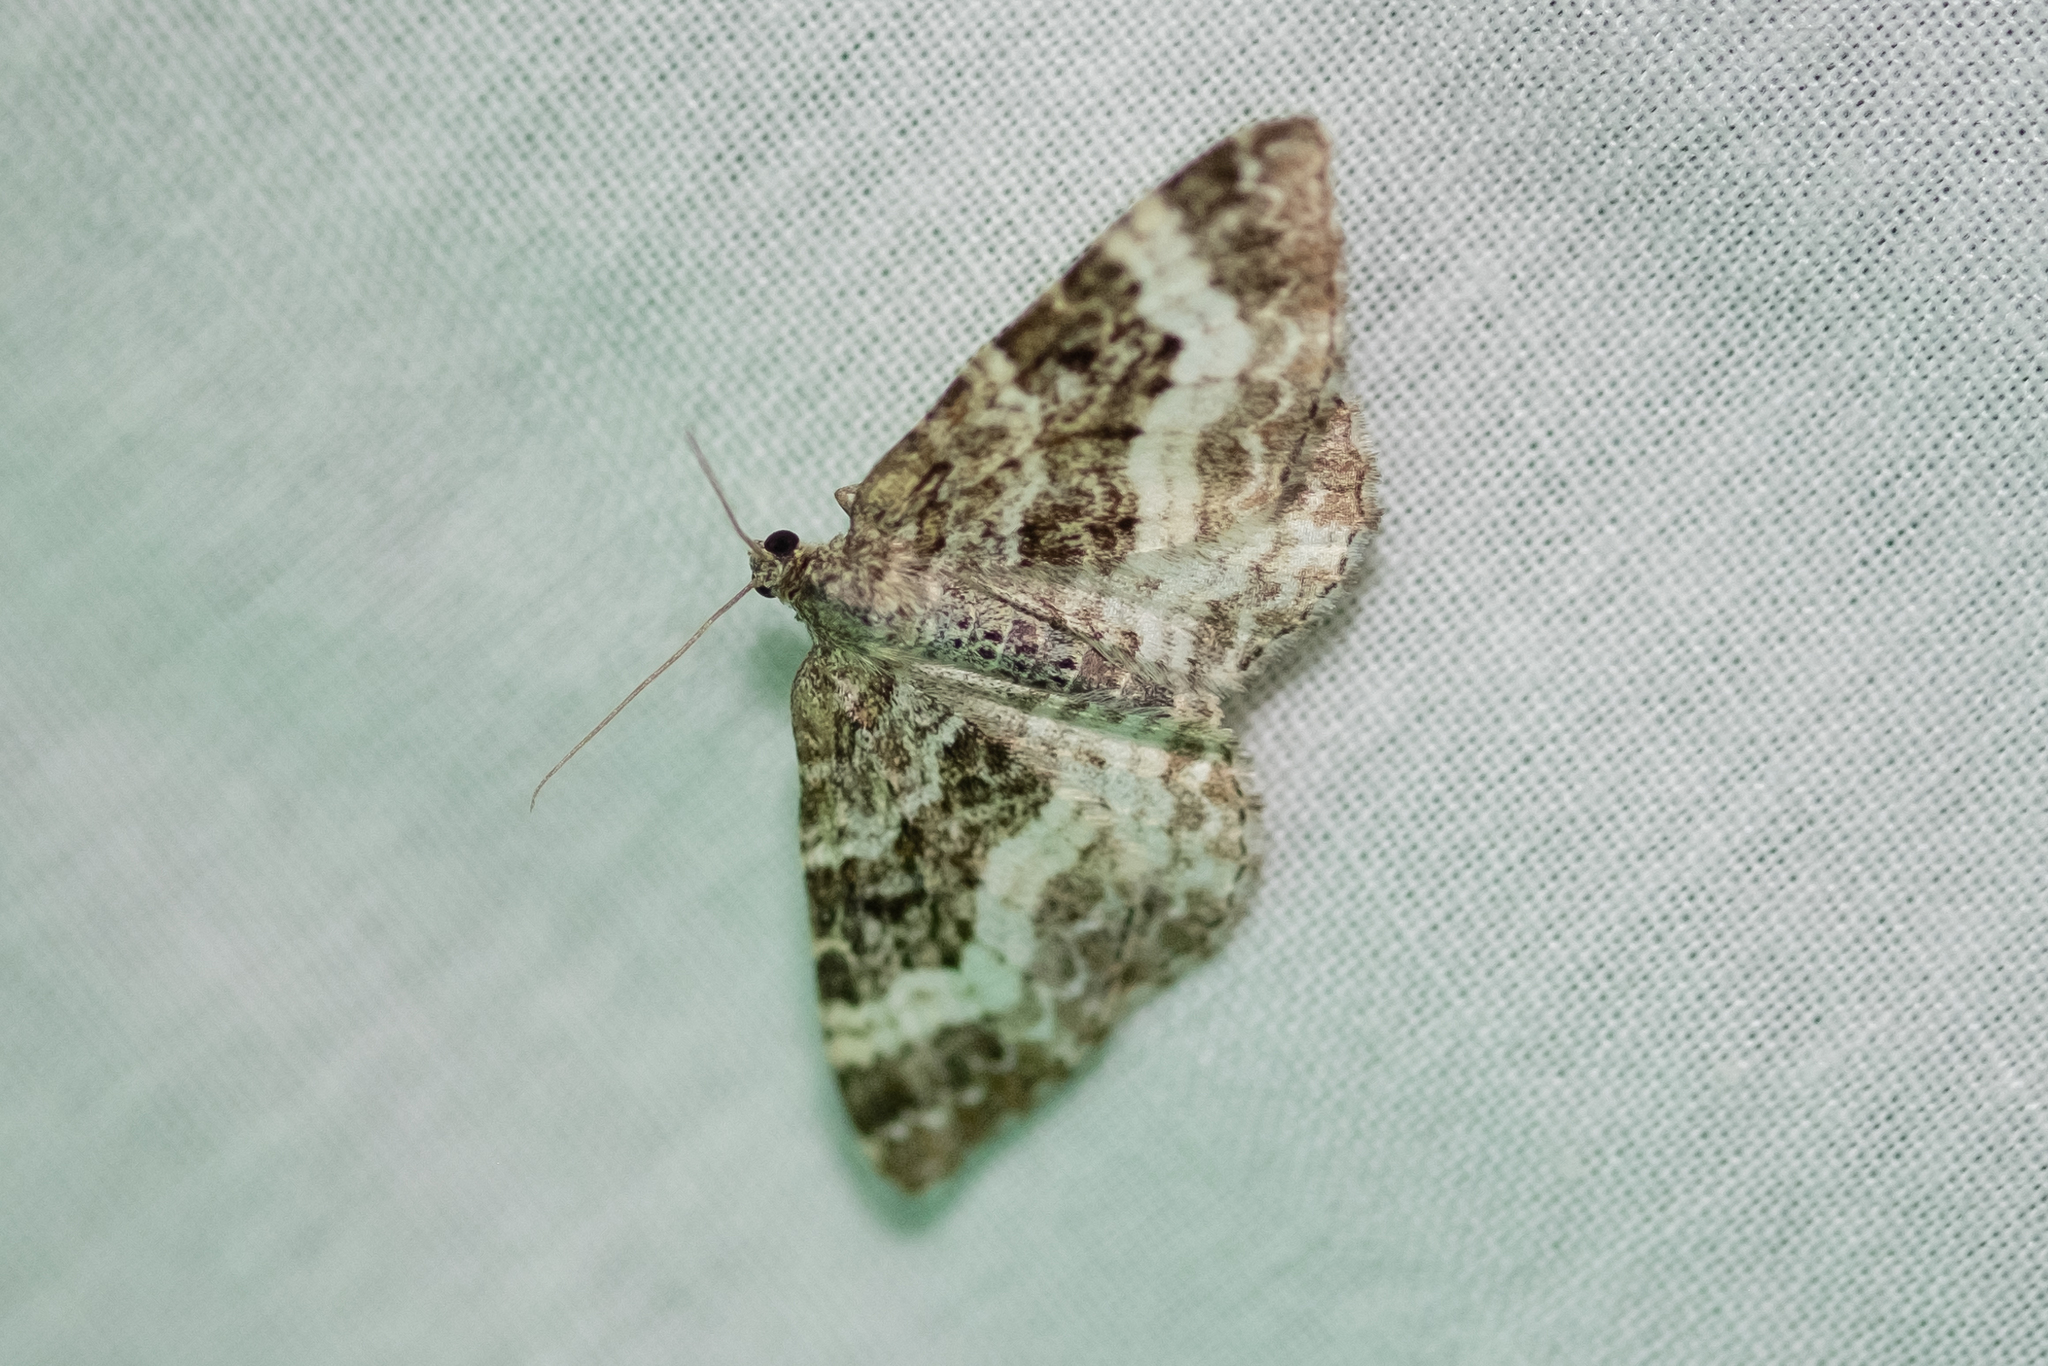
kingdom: Animalia
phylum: Arthropoda
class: Insecta
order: Lepidoptera
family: Geometridae
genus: Epirrhoe
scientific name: Epirrhoe alternata
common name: Common carpet
